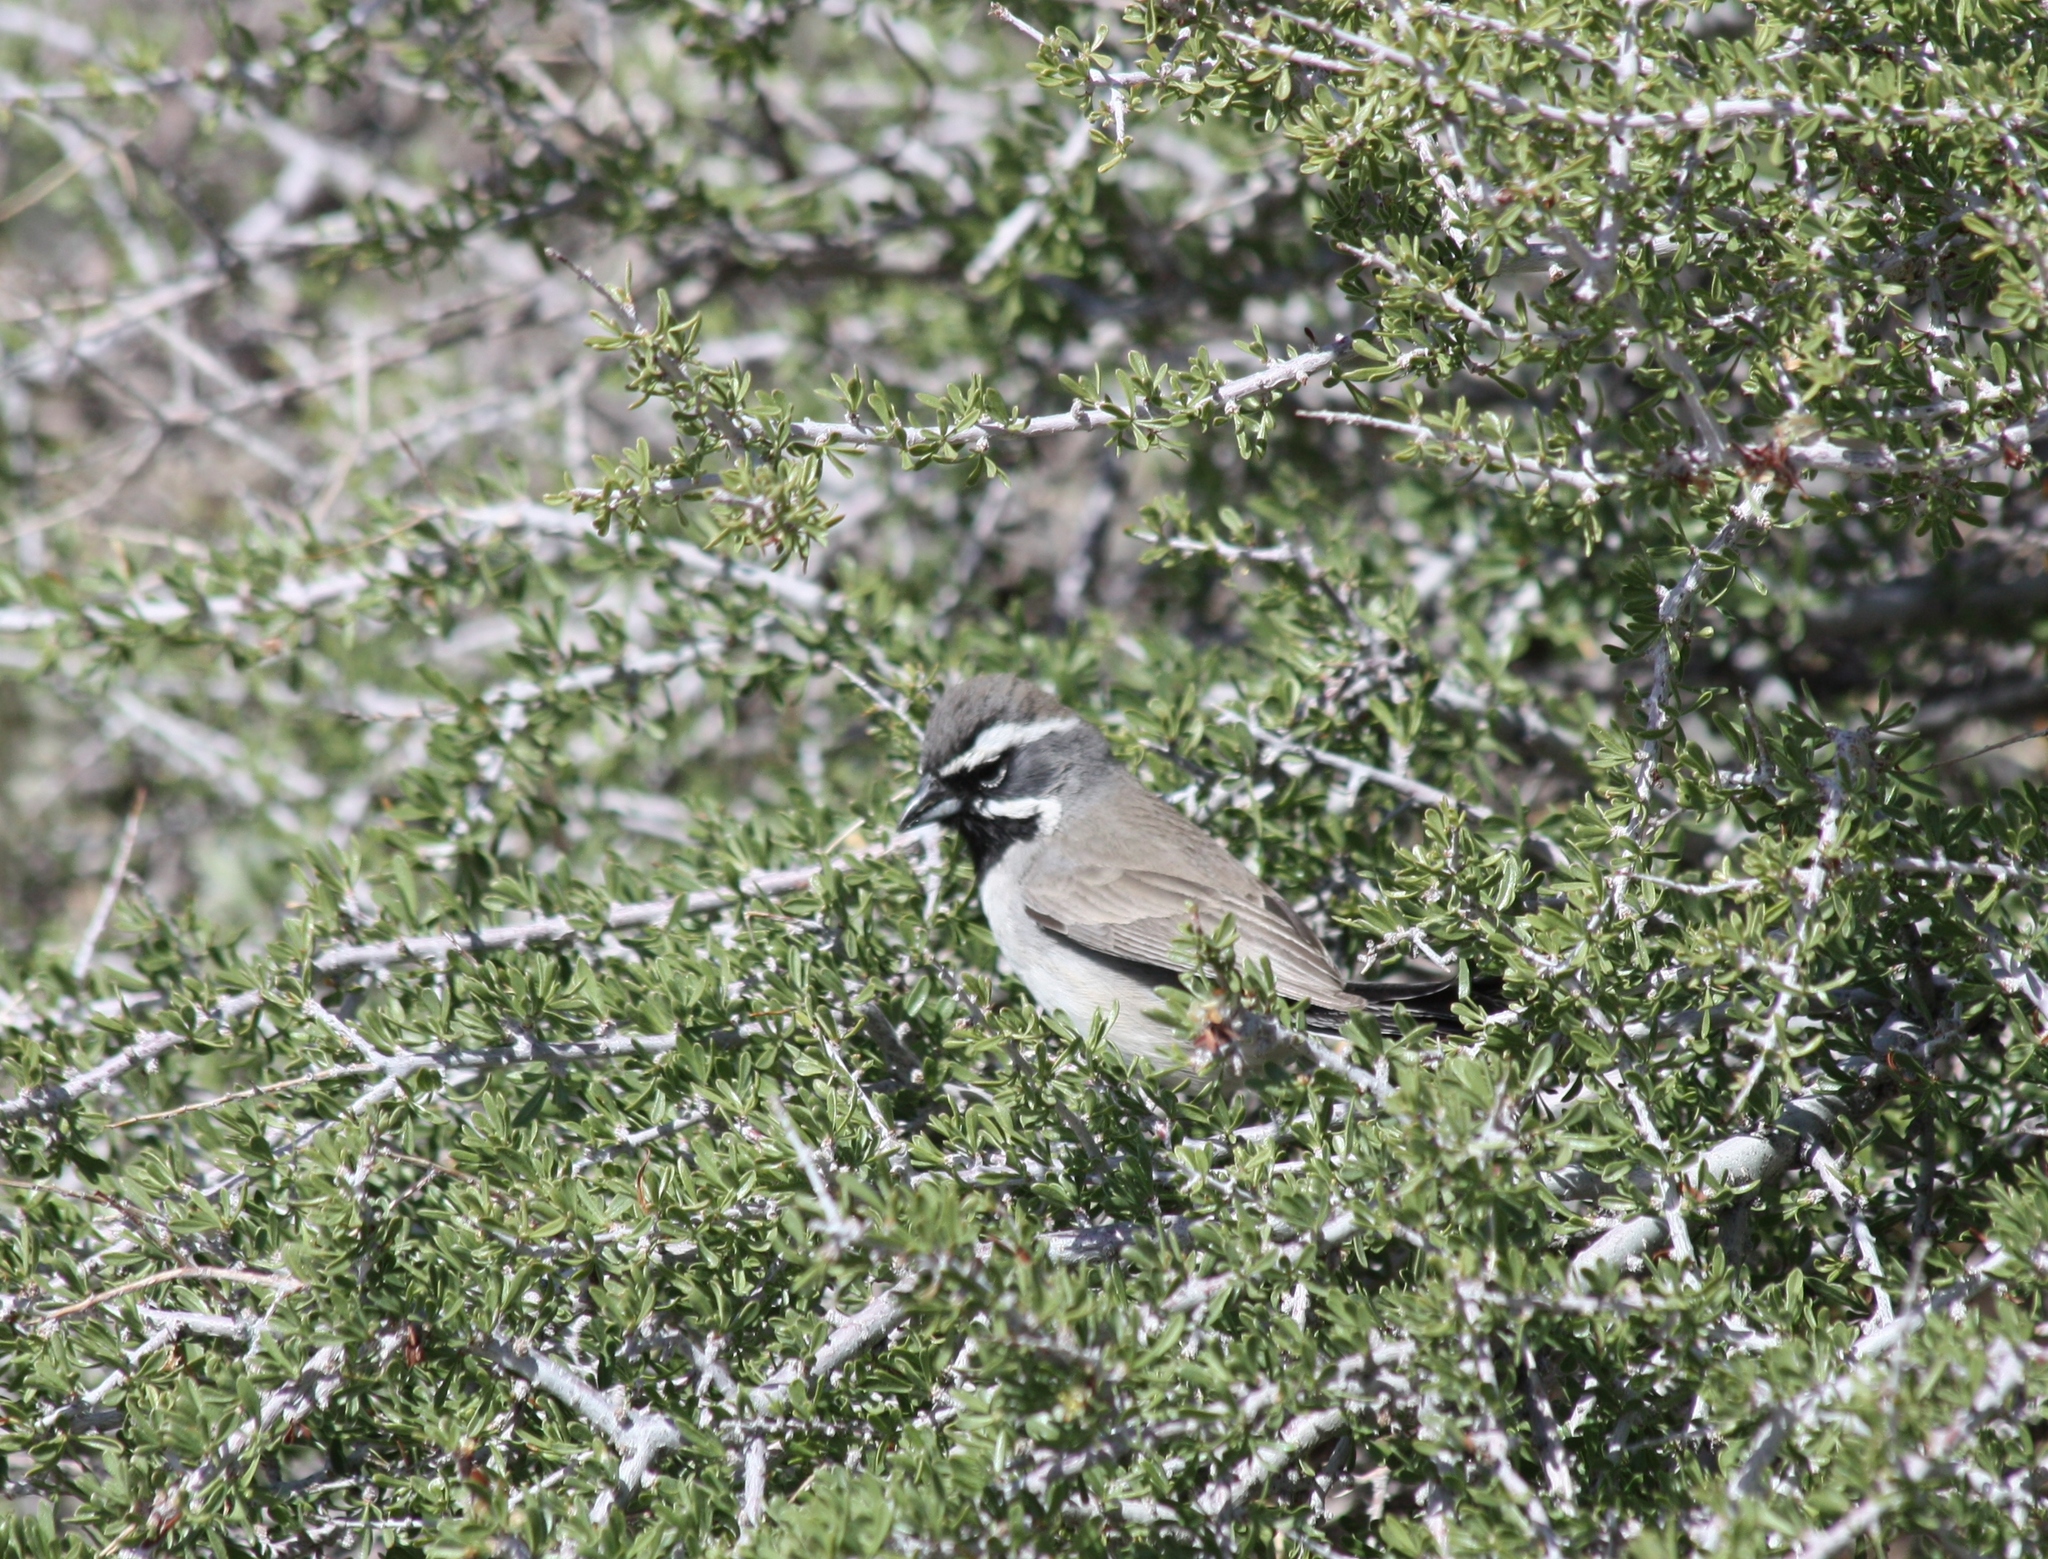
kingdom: Animalia
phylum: Chordata
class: Aves
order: Passeriformes
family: Passerellidae
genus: Amphispiza
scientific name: Amphispiza bilineata
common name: Black-throated sparrow
